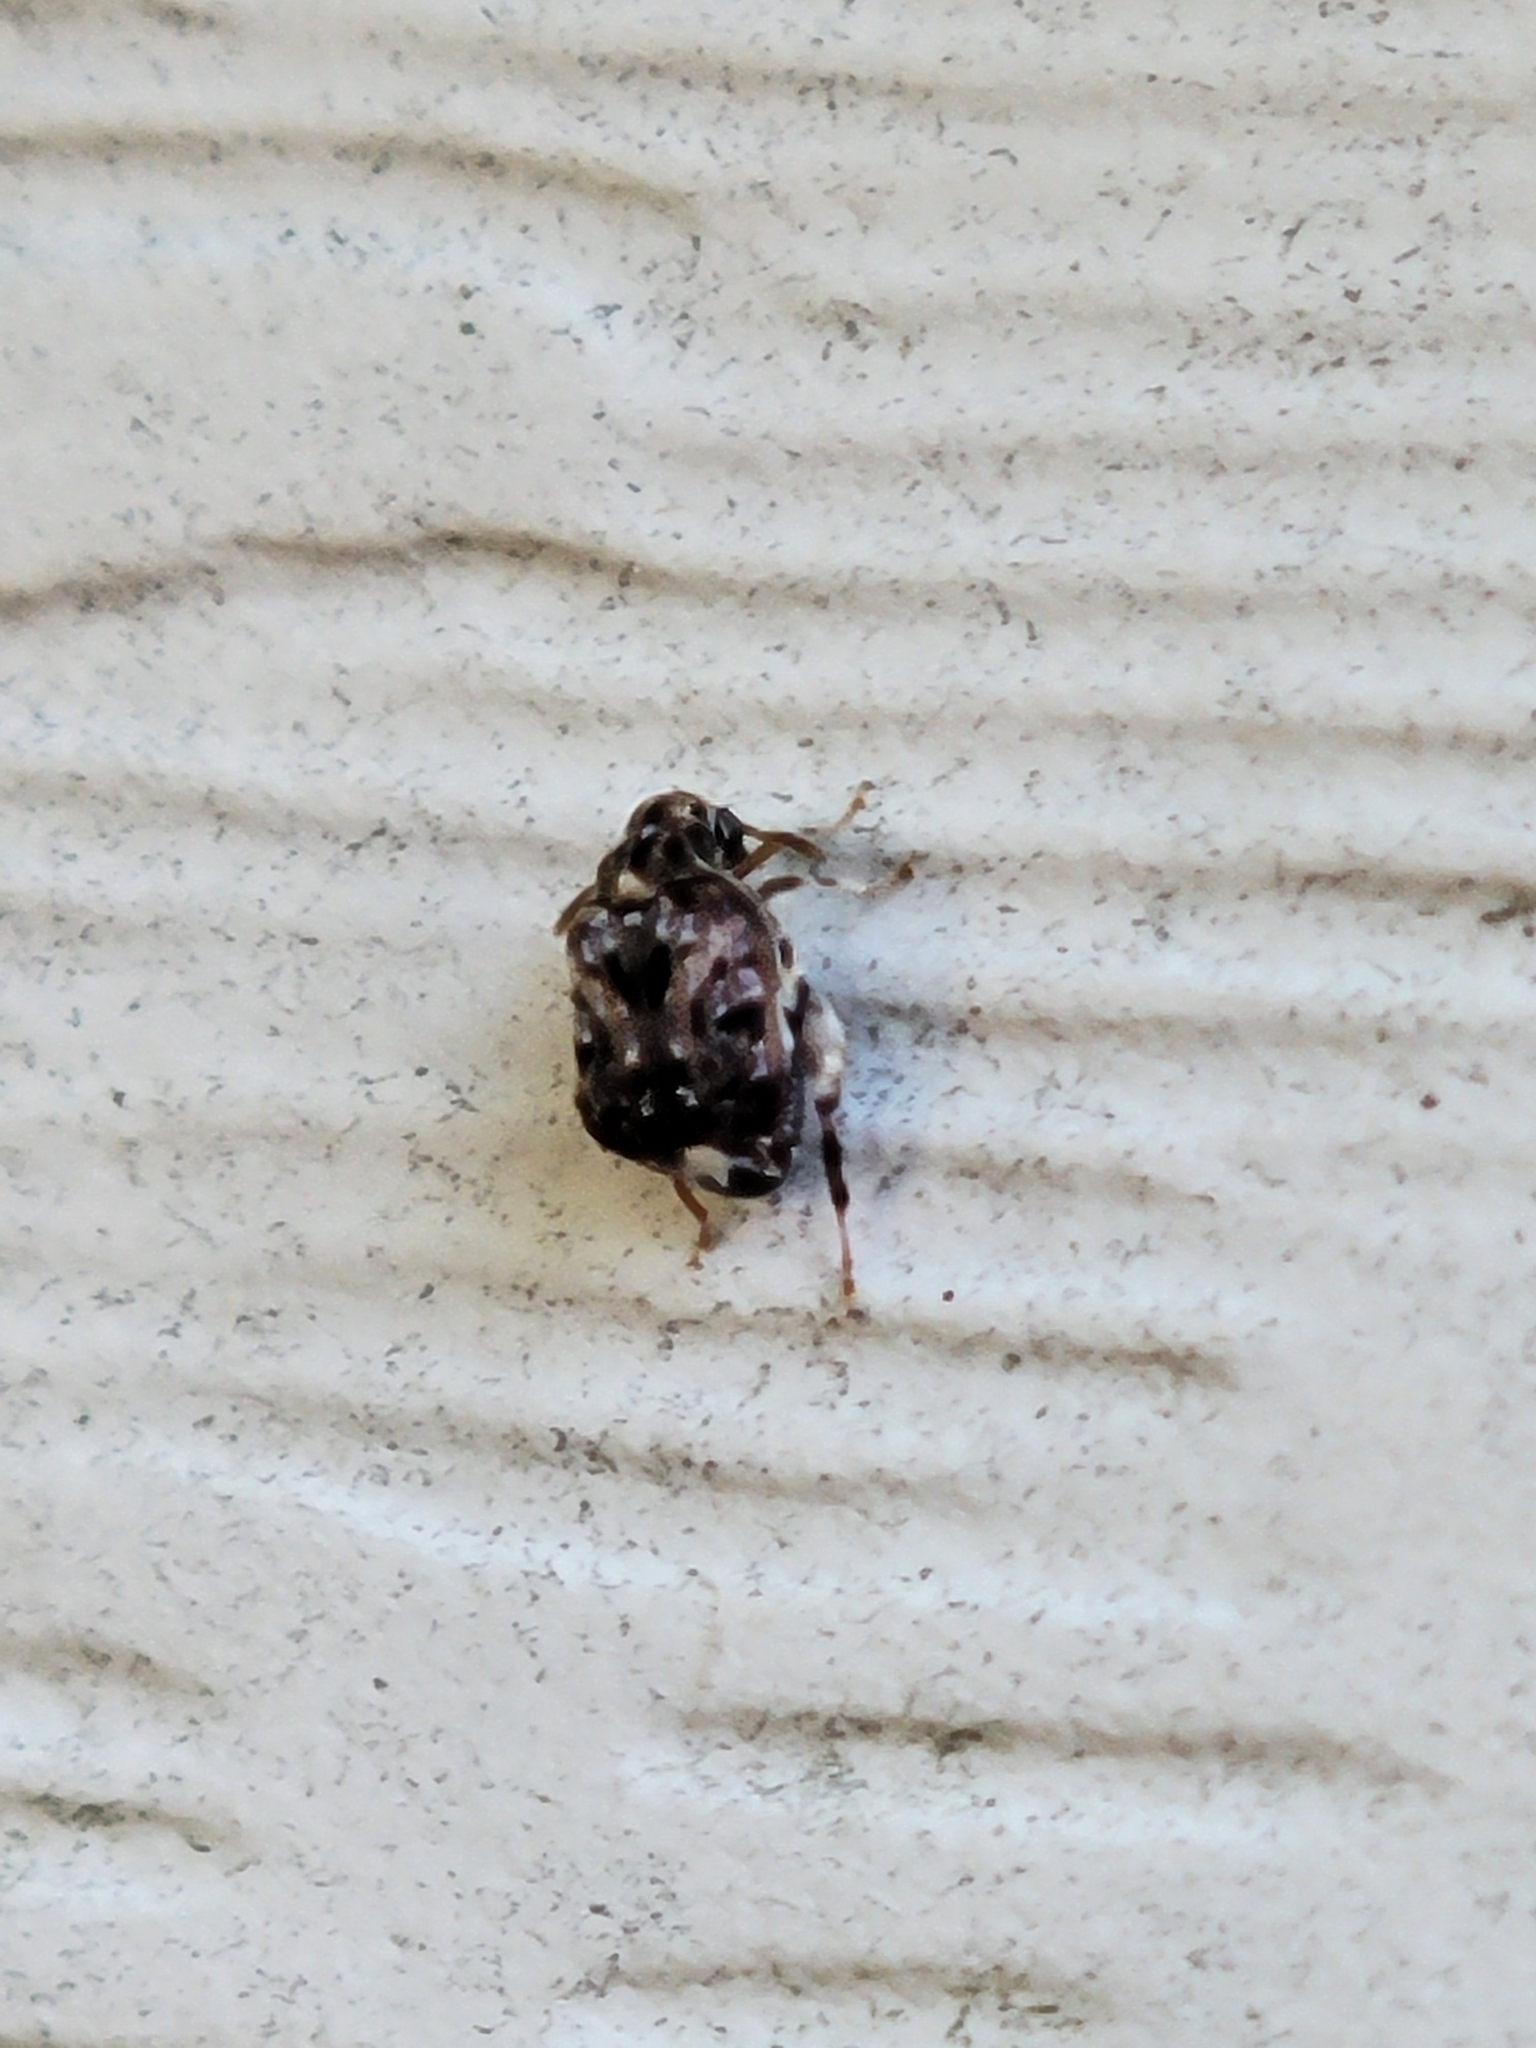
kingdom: Animalia
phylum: Arthropoda
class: Insecta
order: Coleoptera
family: Chrysomelidae
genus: Gibbobruchus
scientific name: Gibbobruchus mimus
